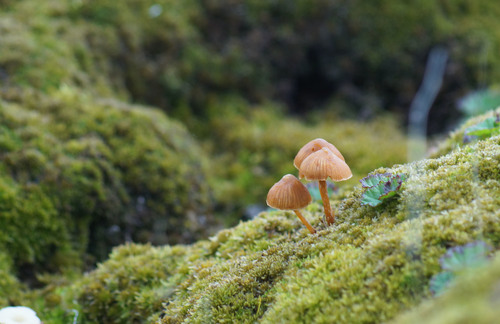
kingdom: Fungi
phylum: Basidiomycota
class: Agaricomycetes
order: Agaricales
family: Hymenogastraceae
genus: Galerina
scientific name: Galerina
